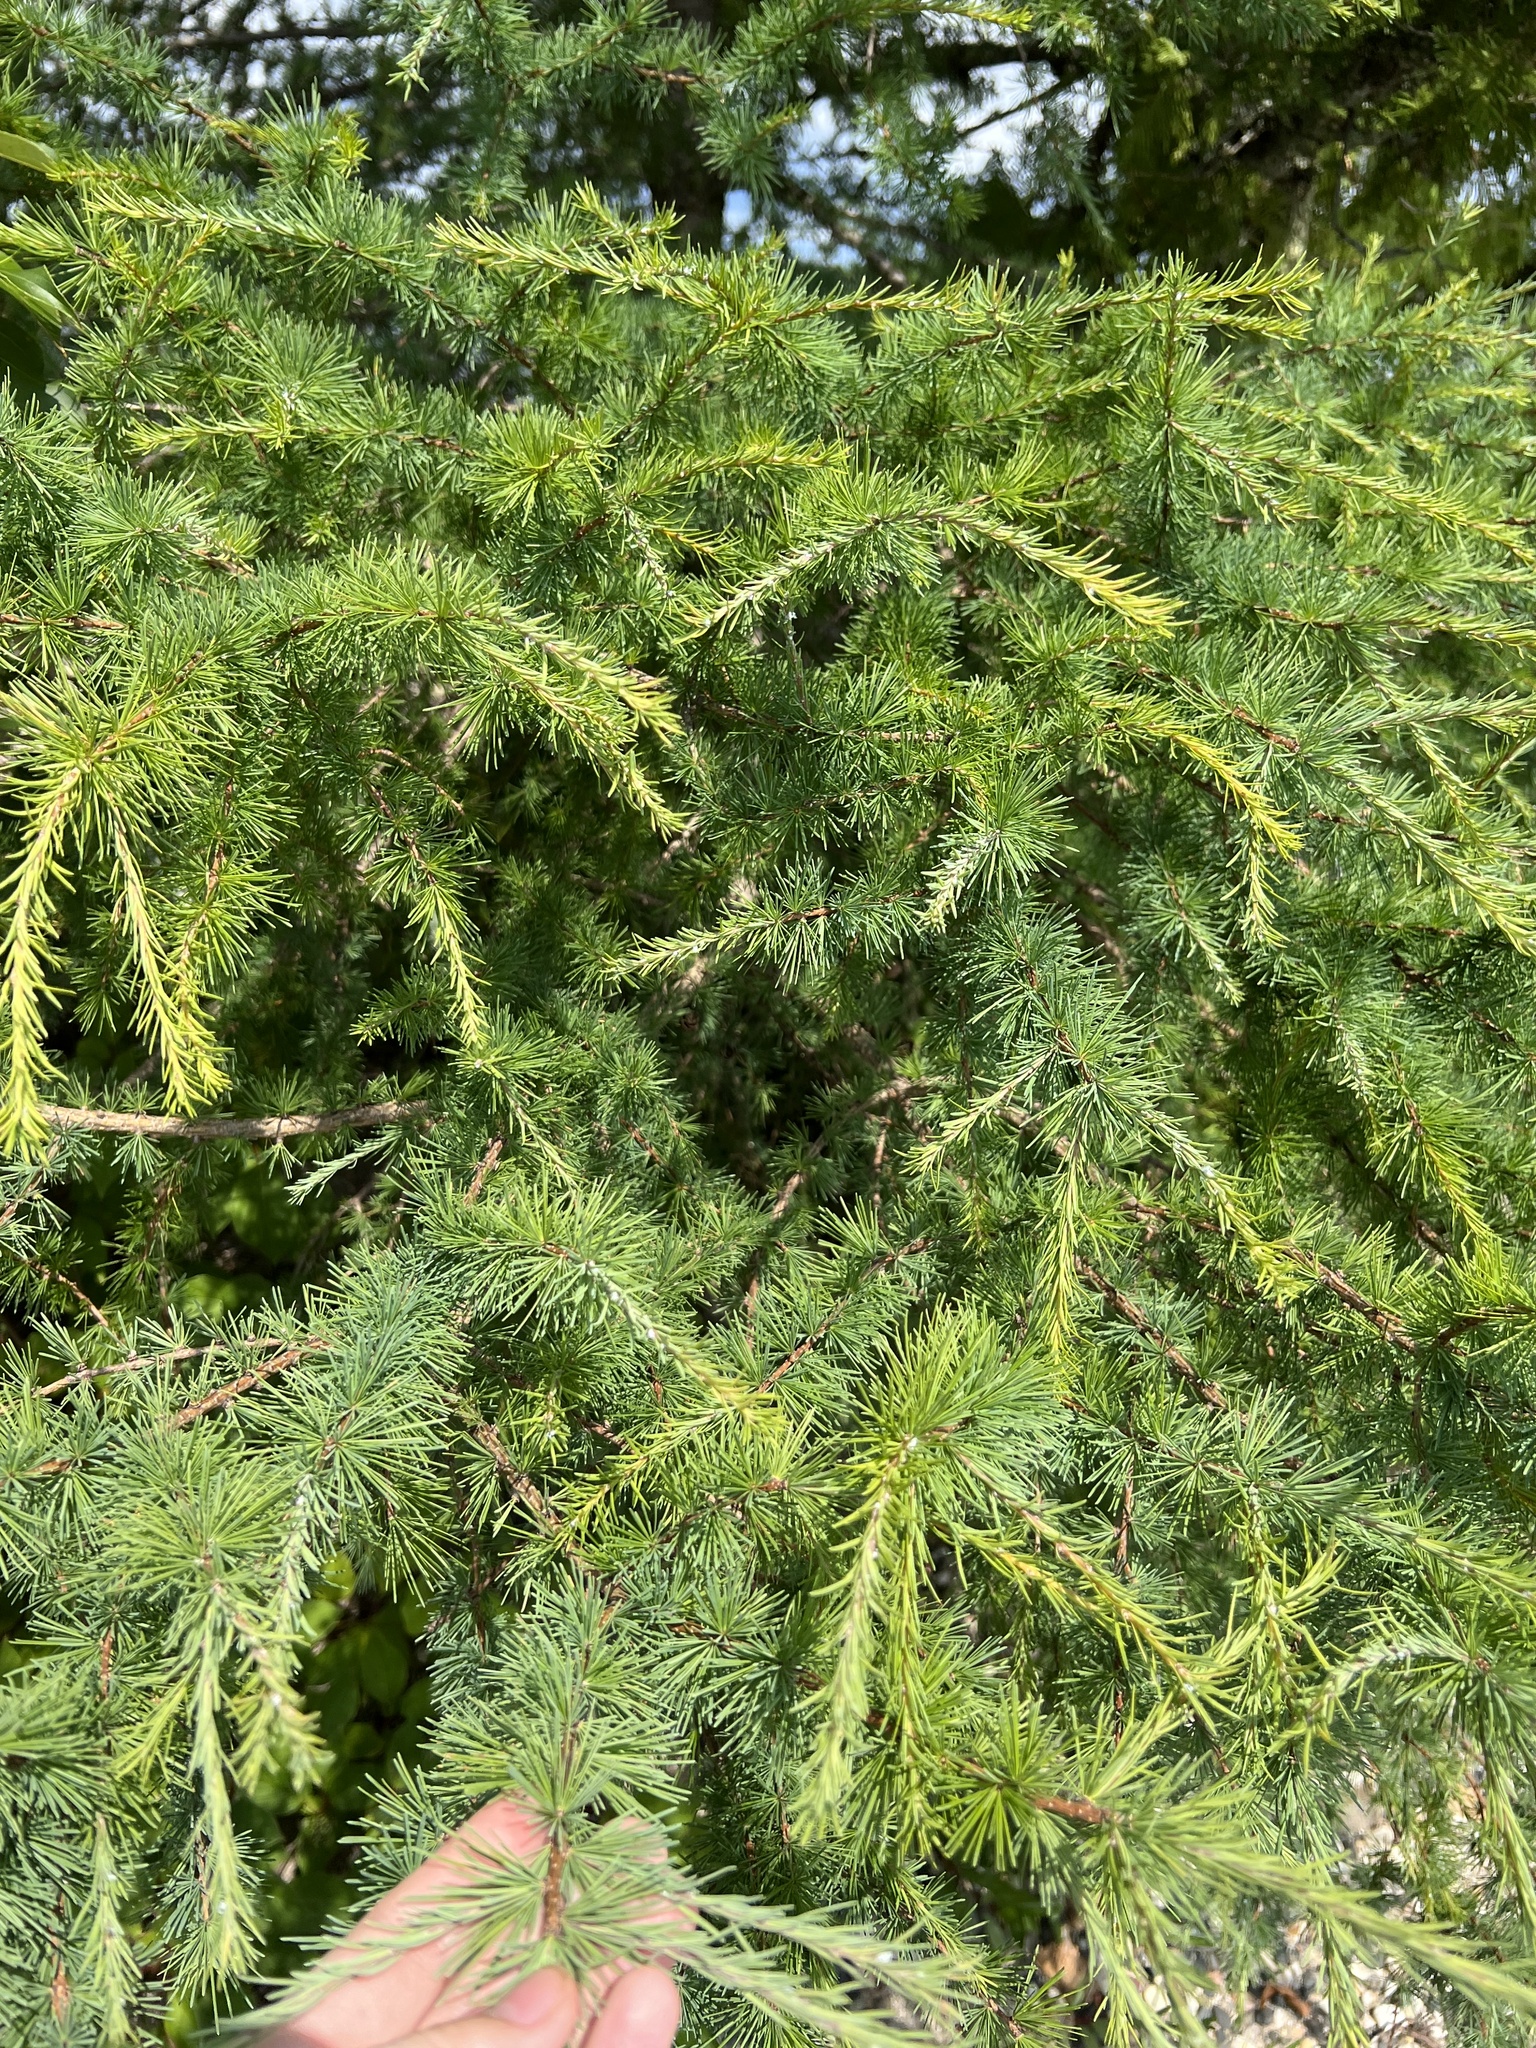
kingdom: Plantae
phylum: Tracheophyta
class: Pinopsida
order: Pinales
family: Pinaceae
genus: Larix
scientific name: Larix laricina
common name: American larch
